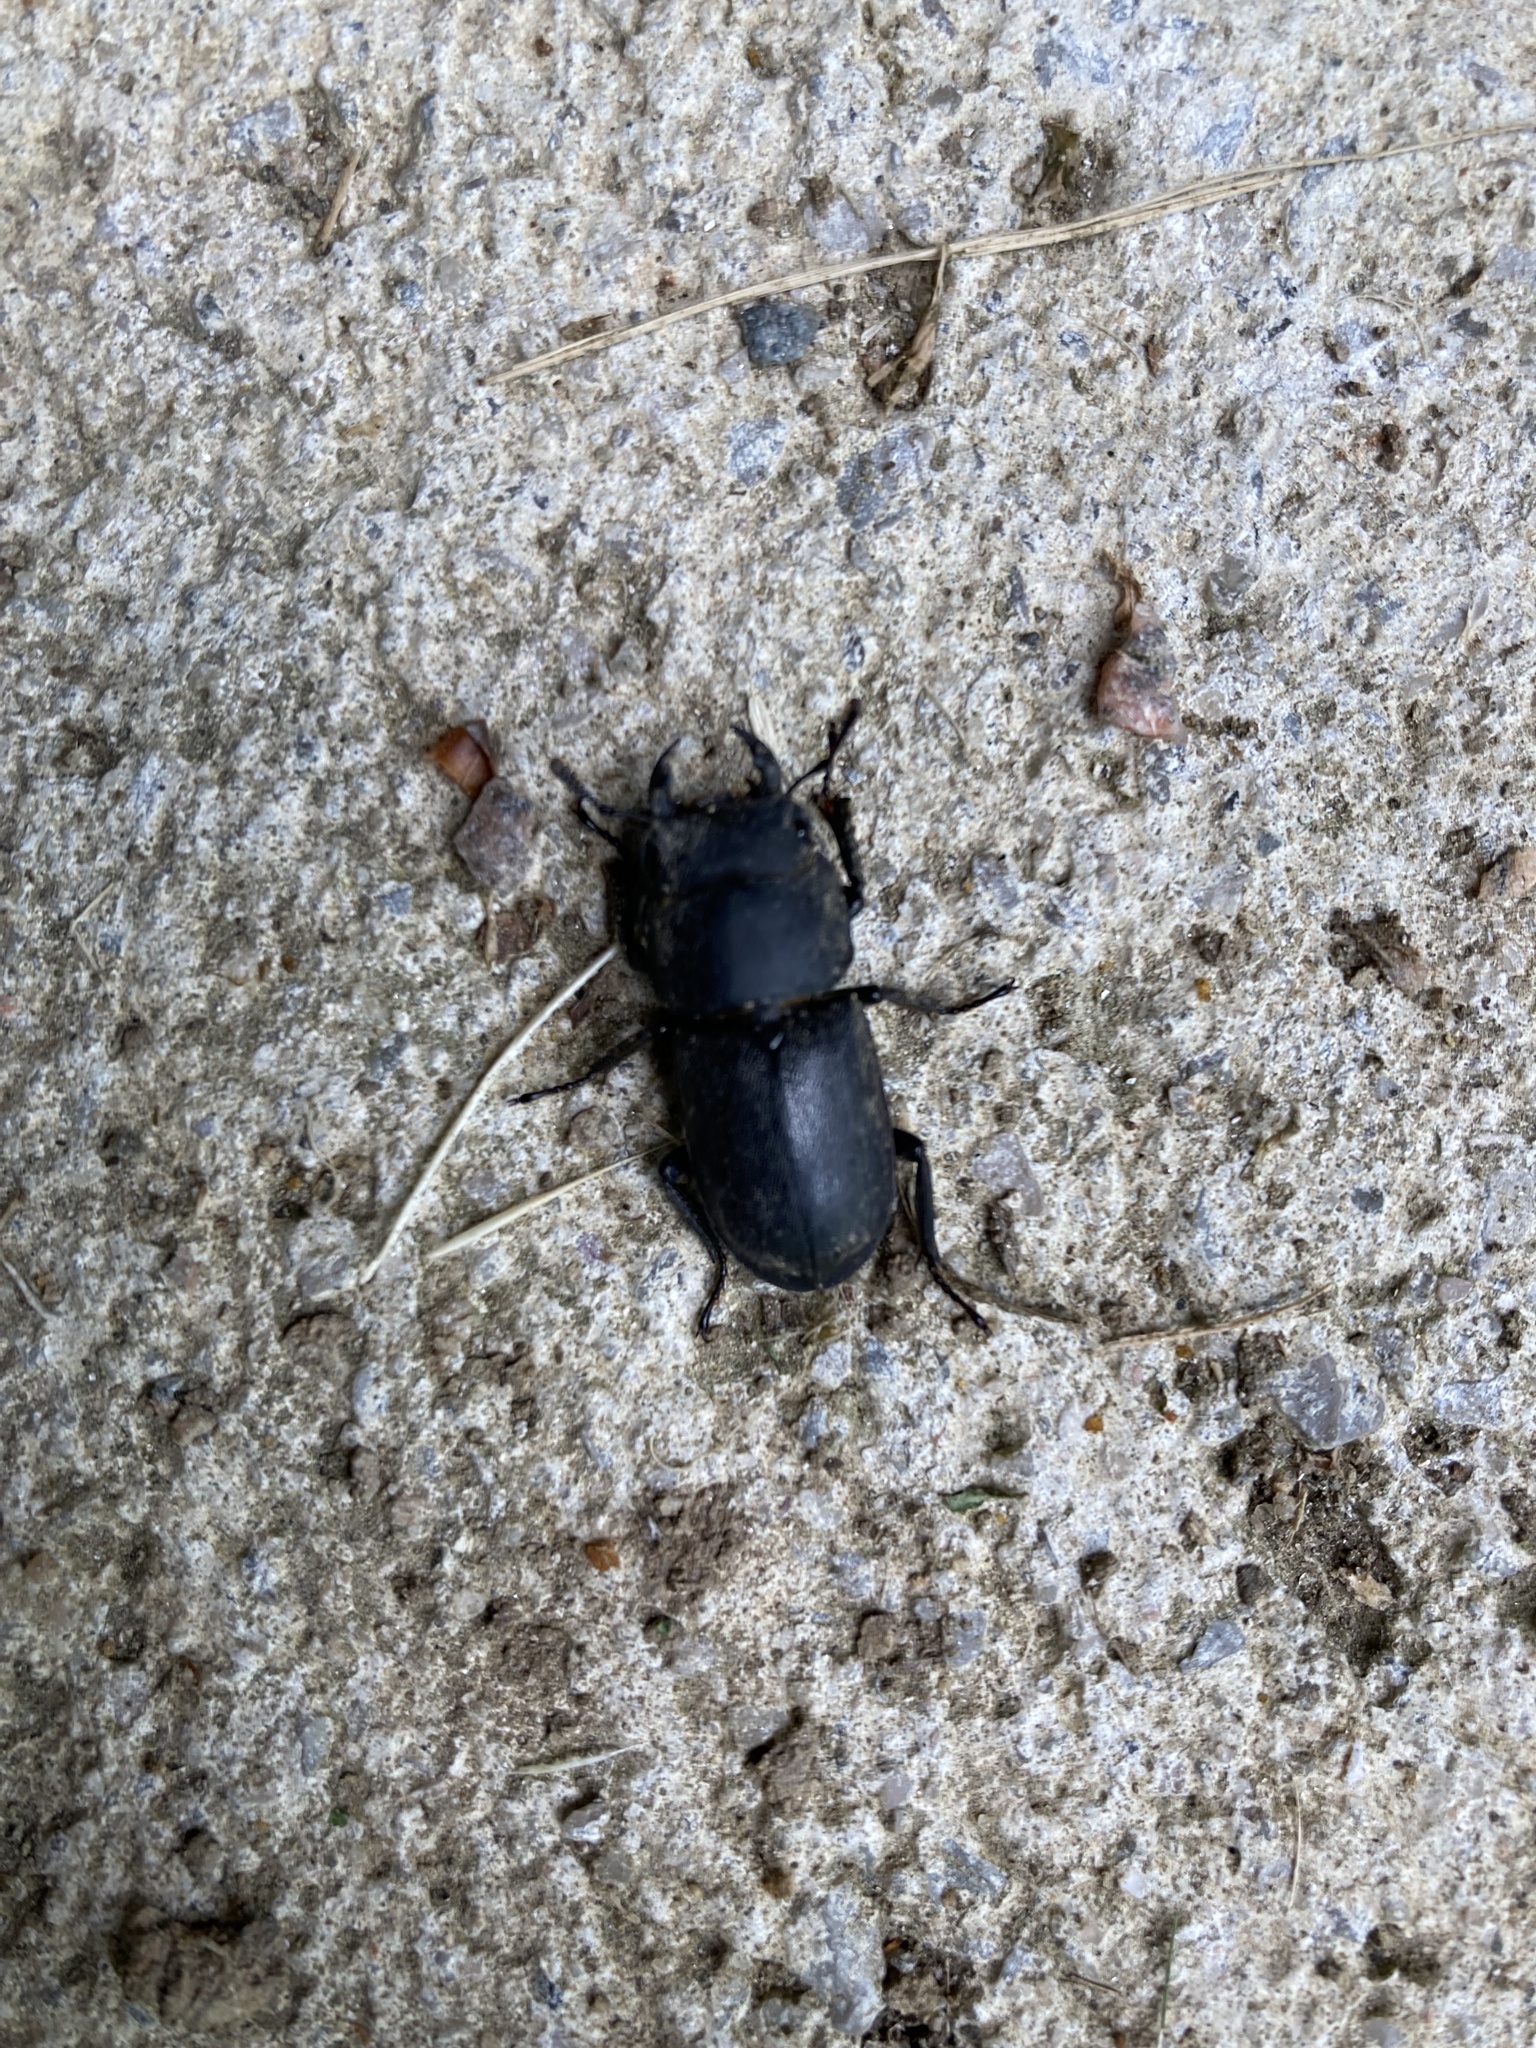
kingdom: Animalia
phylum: Arthropoda
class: Insecta
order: Coleoptera
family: Lucanidae
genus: Dorcus
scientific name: Dorcus parallelipipedus
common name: Lesser stag beetle
